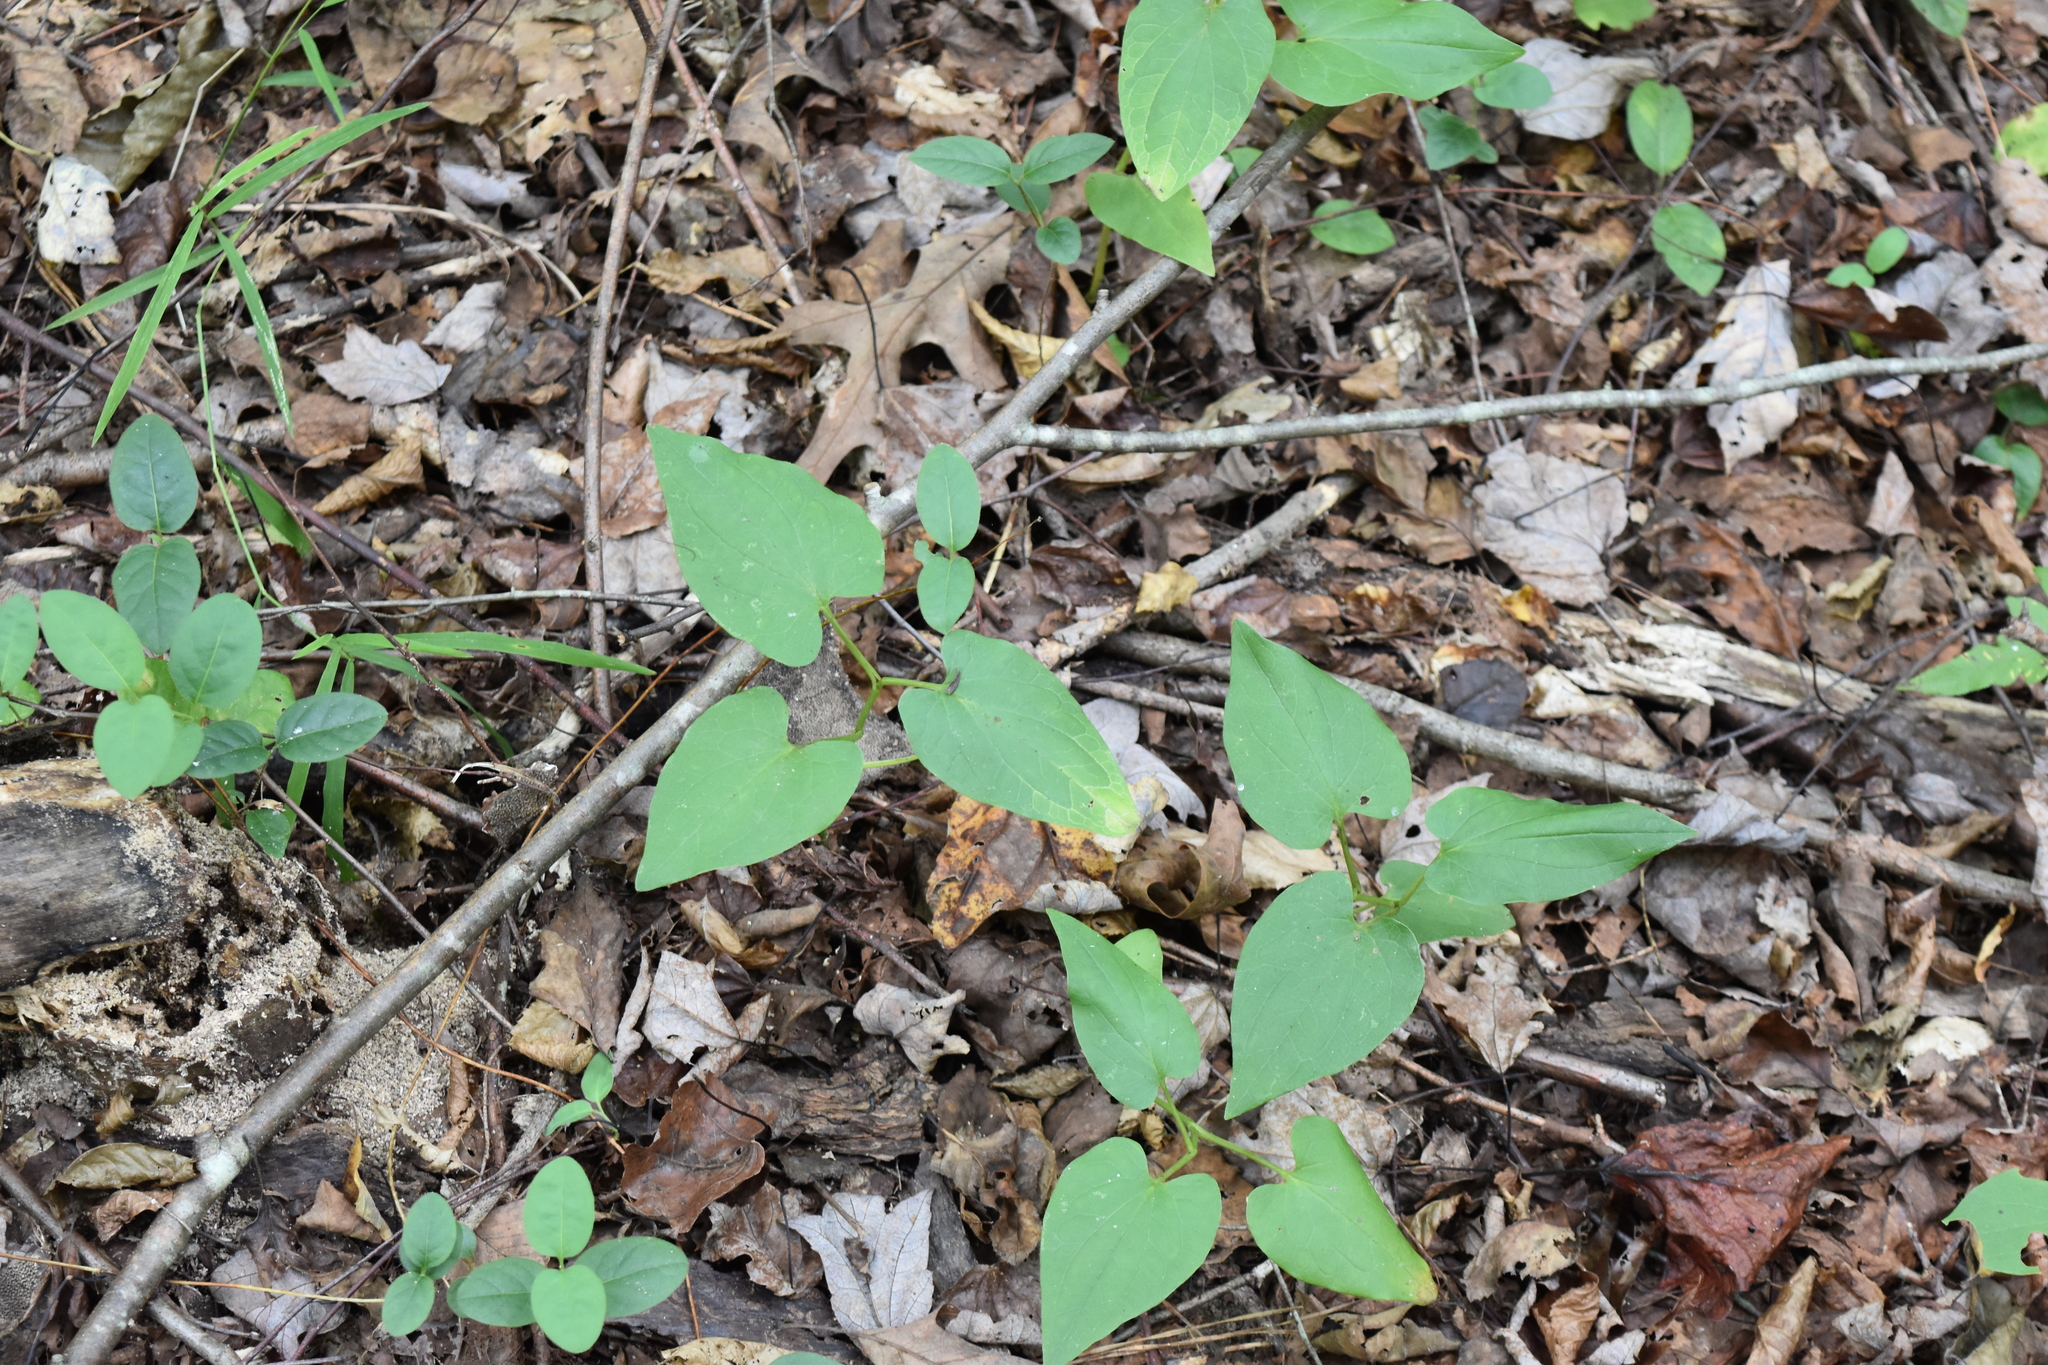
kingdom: Plantae
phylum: Tracheophyta
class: Magnoliopsida
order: Piperales
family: Saururaceae
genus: Saururus
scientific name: Saururus cernuus
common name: Lizard's-tail
